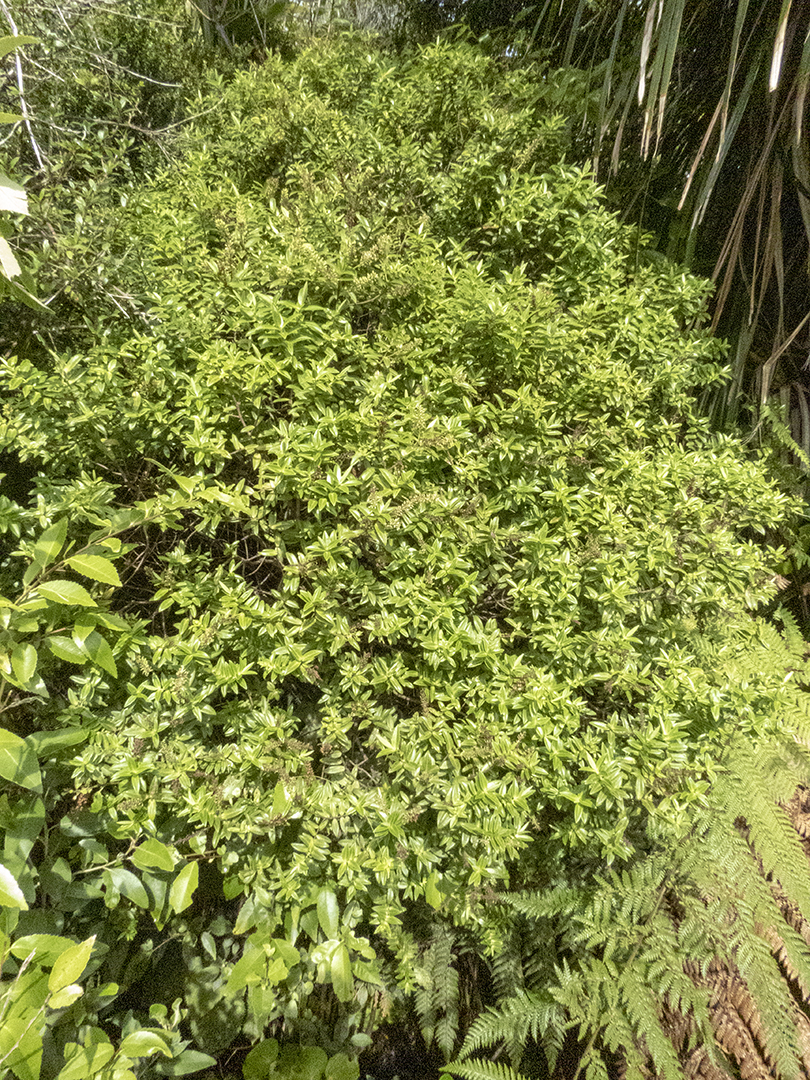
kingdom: Plantae
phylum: Tracheophyta
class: Magnoliopsida
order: Lamiales
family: Plantaginaceae
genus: Veronica
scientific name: Veronica leiophylla
